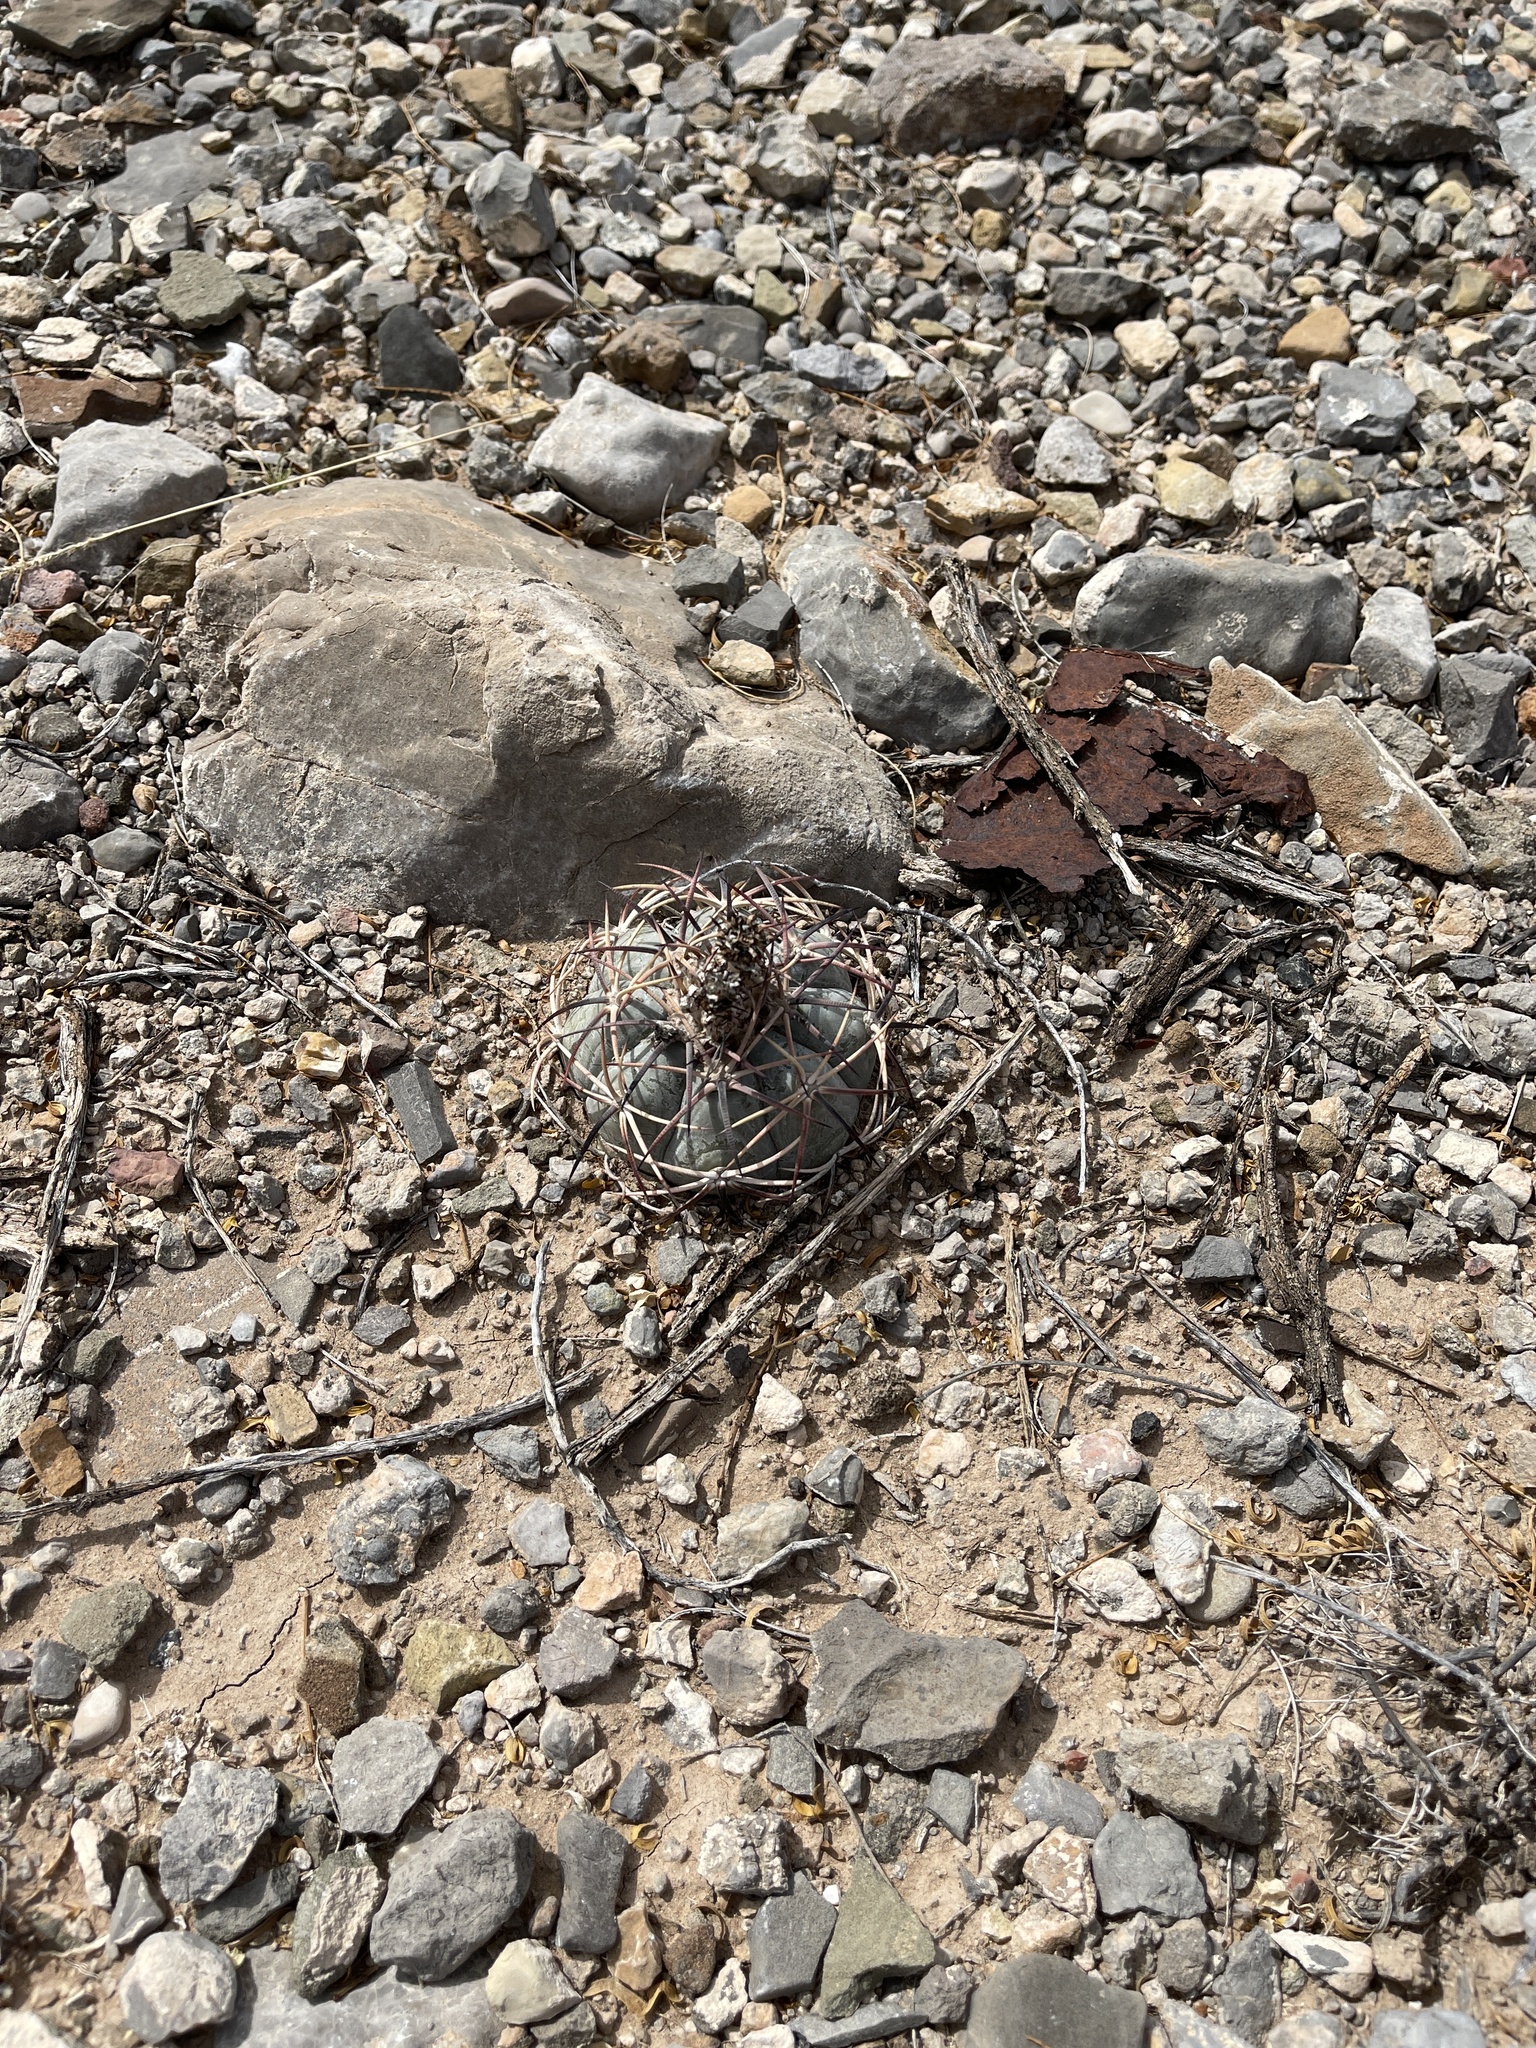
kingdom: Plantae
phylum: Tracheophyta
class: Magnoliopsida
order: Caryophyllales
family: Cactaceae
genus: Echinocactus
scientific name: Echinocactus horizonthalonius
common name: Devilshead
